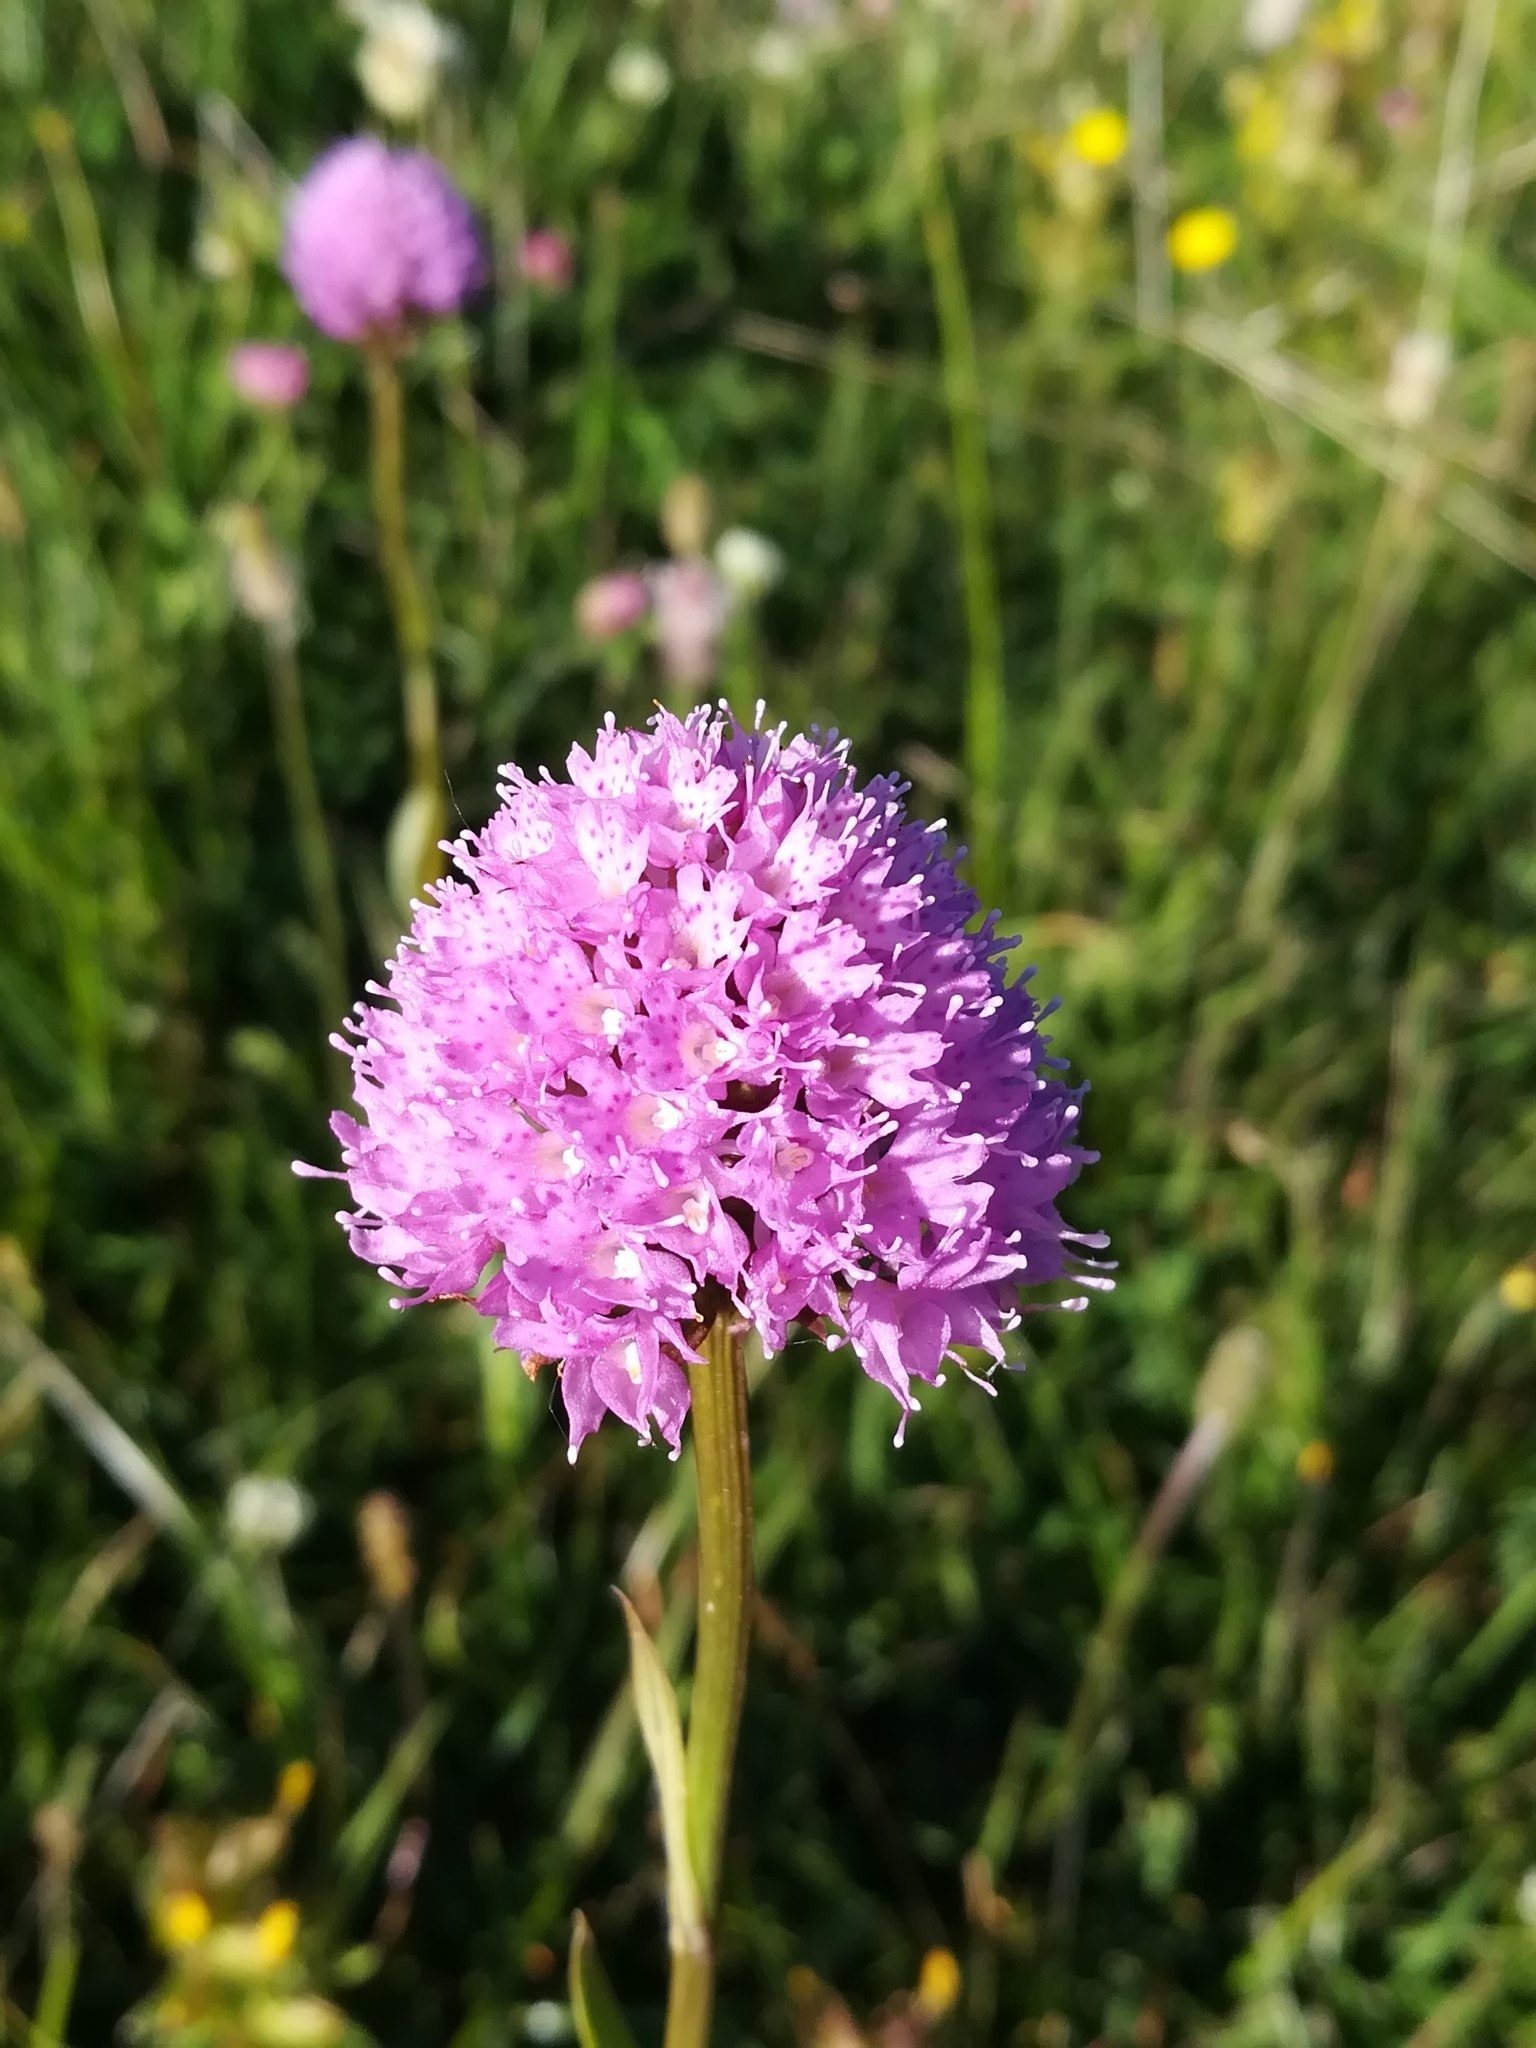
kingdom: Plantae
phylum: Tracheophyta
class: Liliopsida
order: Asparagales
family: Orchidaceae
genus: Traunsteinera
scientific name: Traunsteinera globosa
